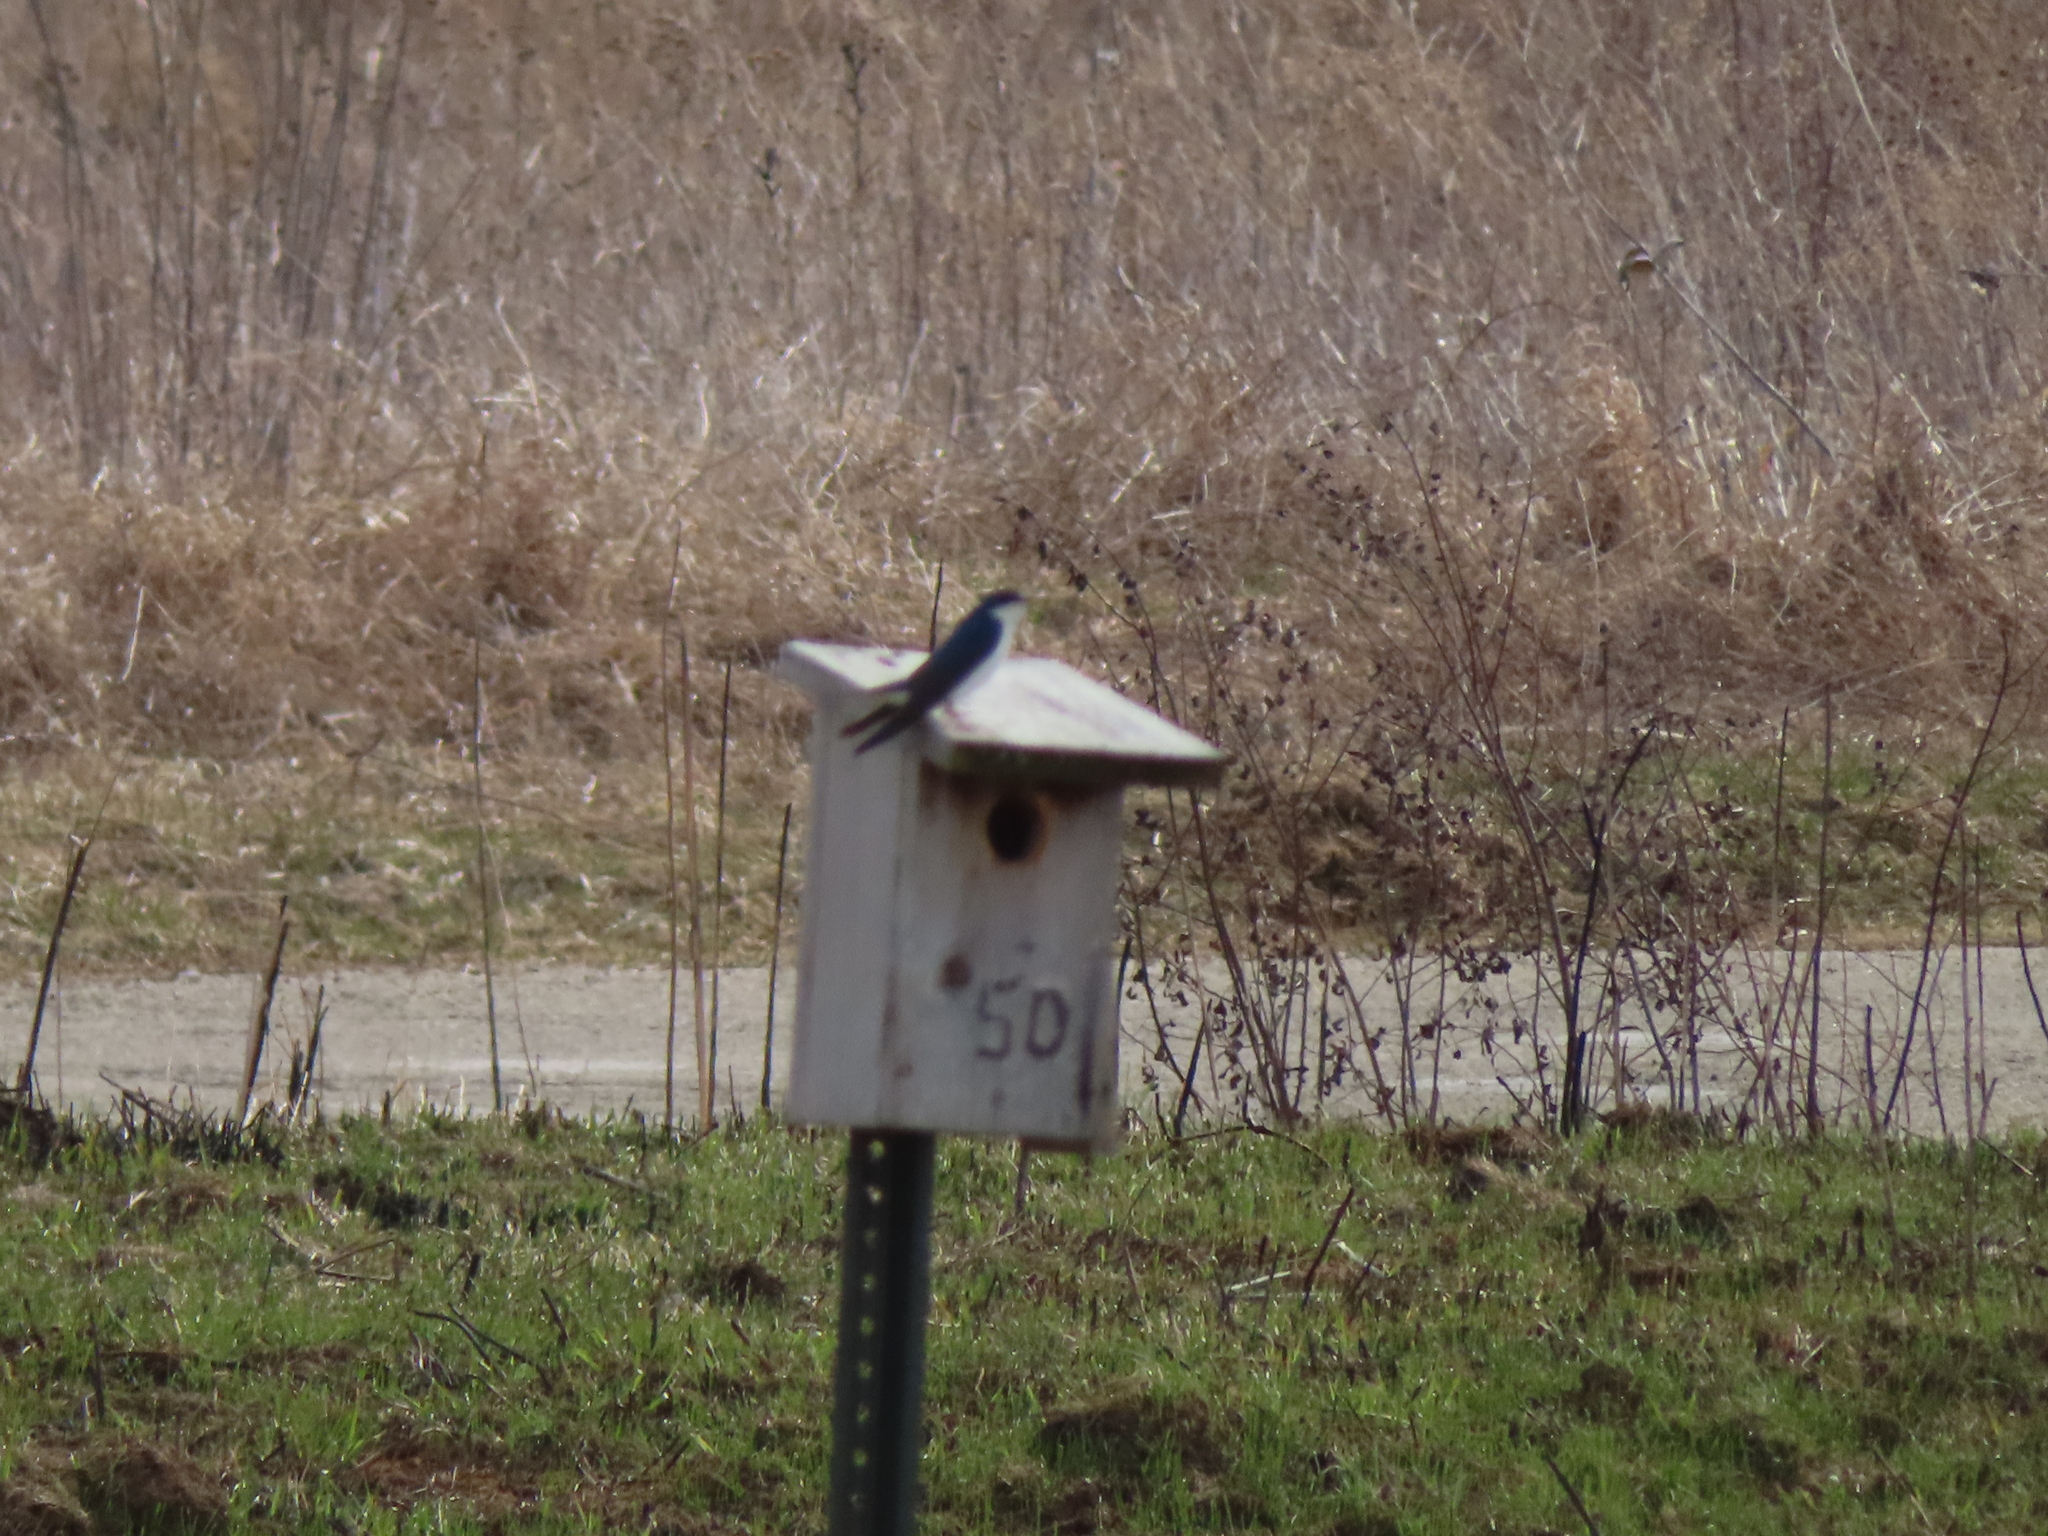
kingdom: Animalia
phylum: Chordata
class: Aves
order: Passeriformes
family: Hirundinidae
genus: Tachycineta
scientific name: Tachycineta bicolor
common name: Tree swallow
